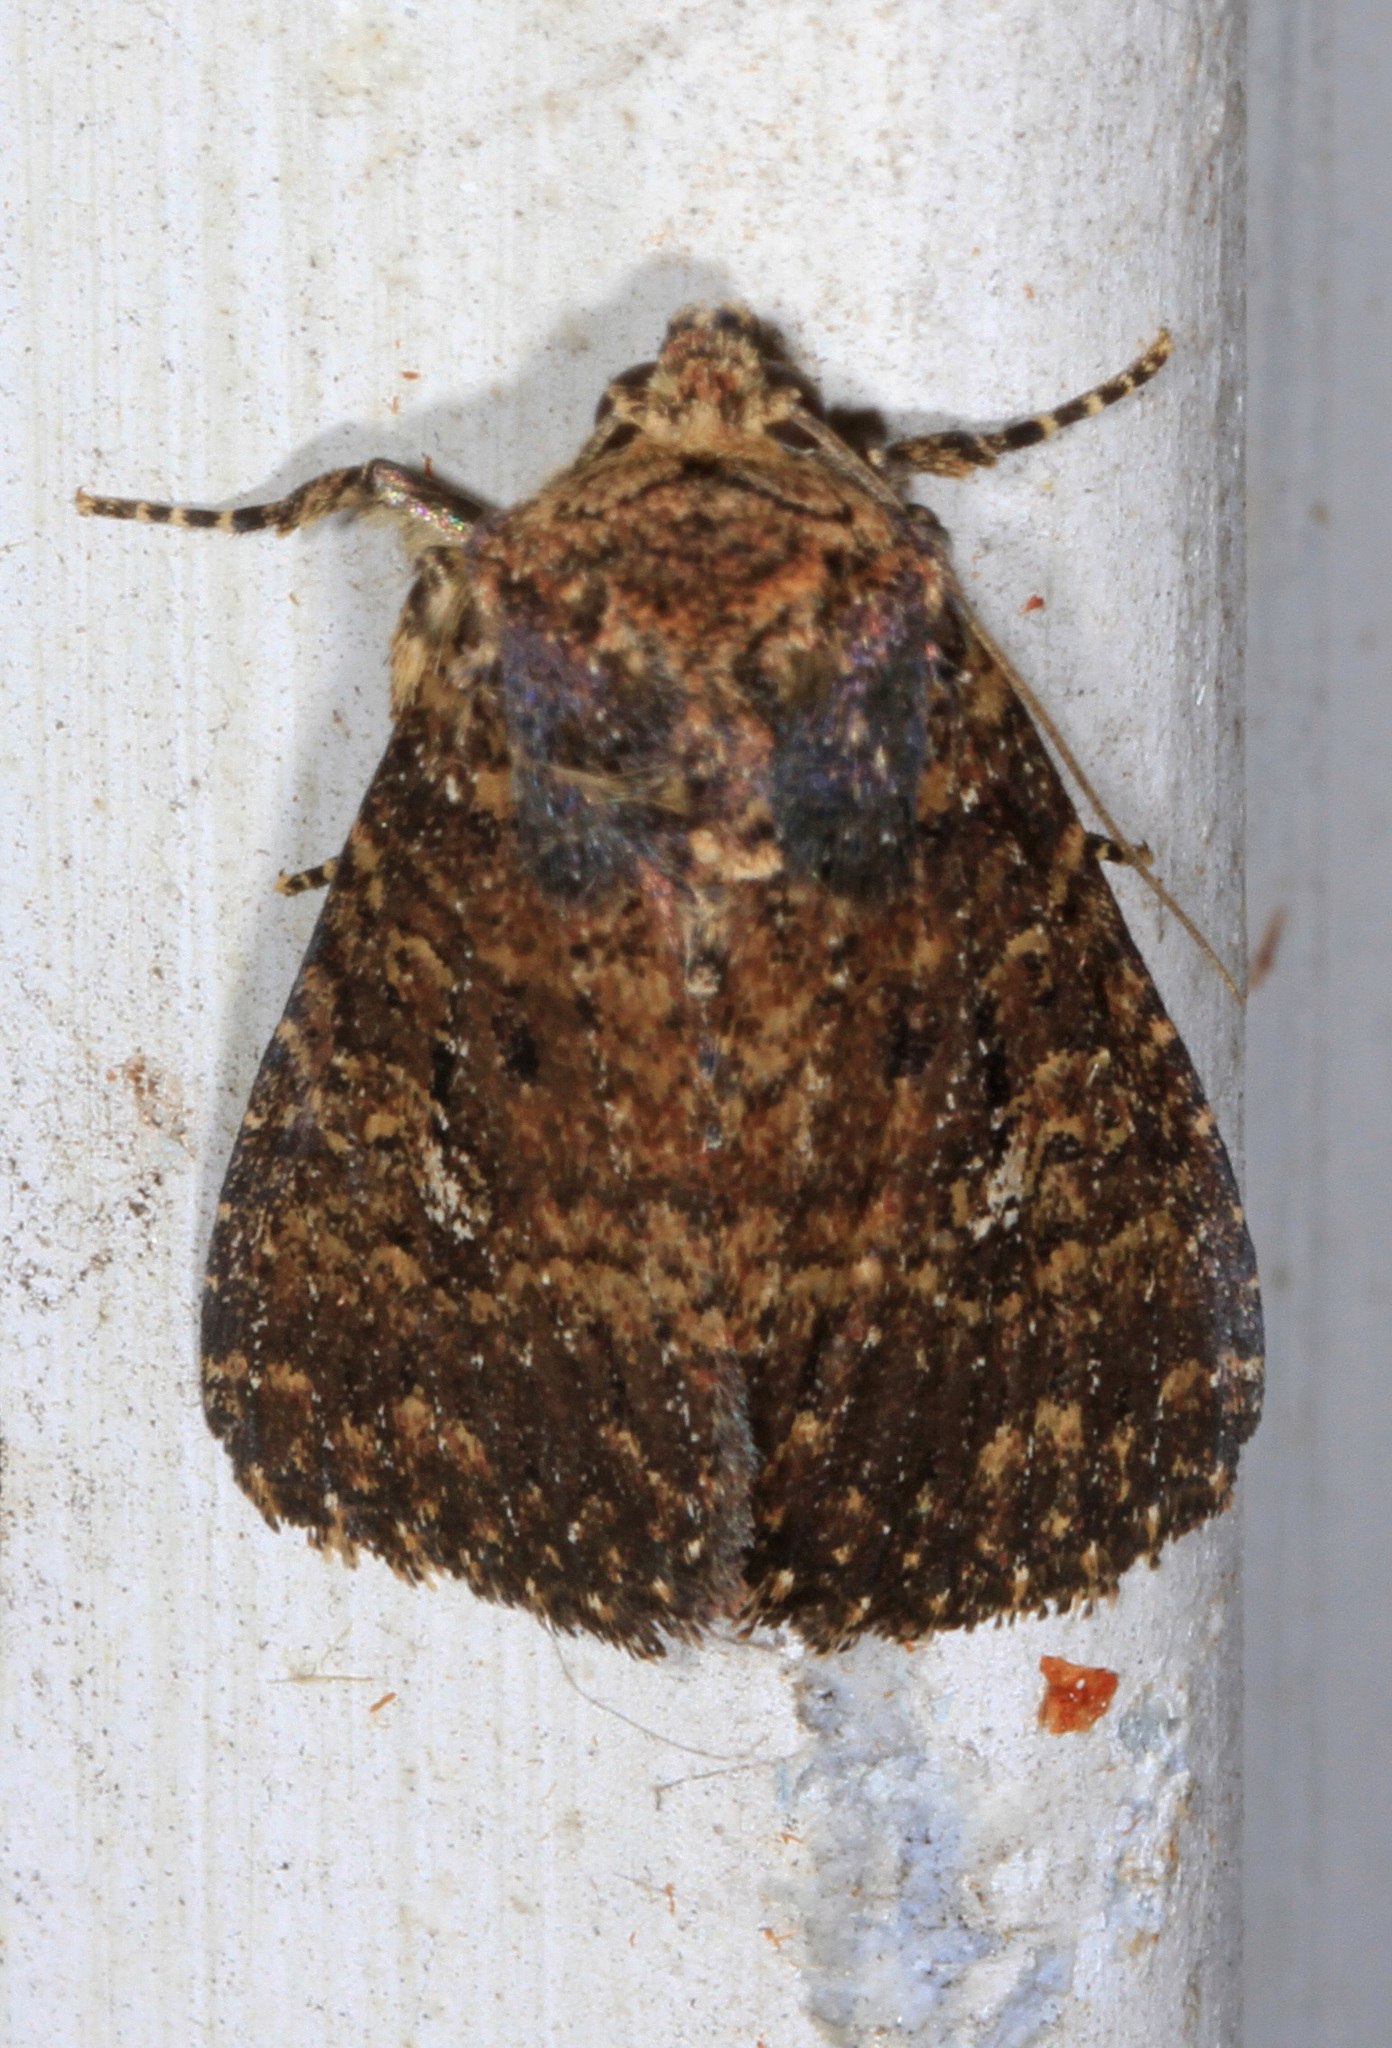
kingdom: Animalia
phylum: Arthropoda
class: Insecta
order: Lepidoptera
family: Noctuidae
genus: Condica
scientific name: Condica mobilis
